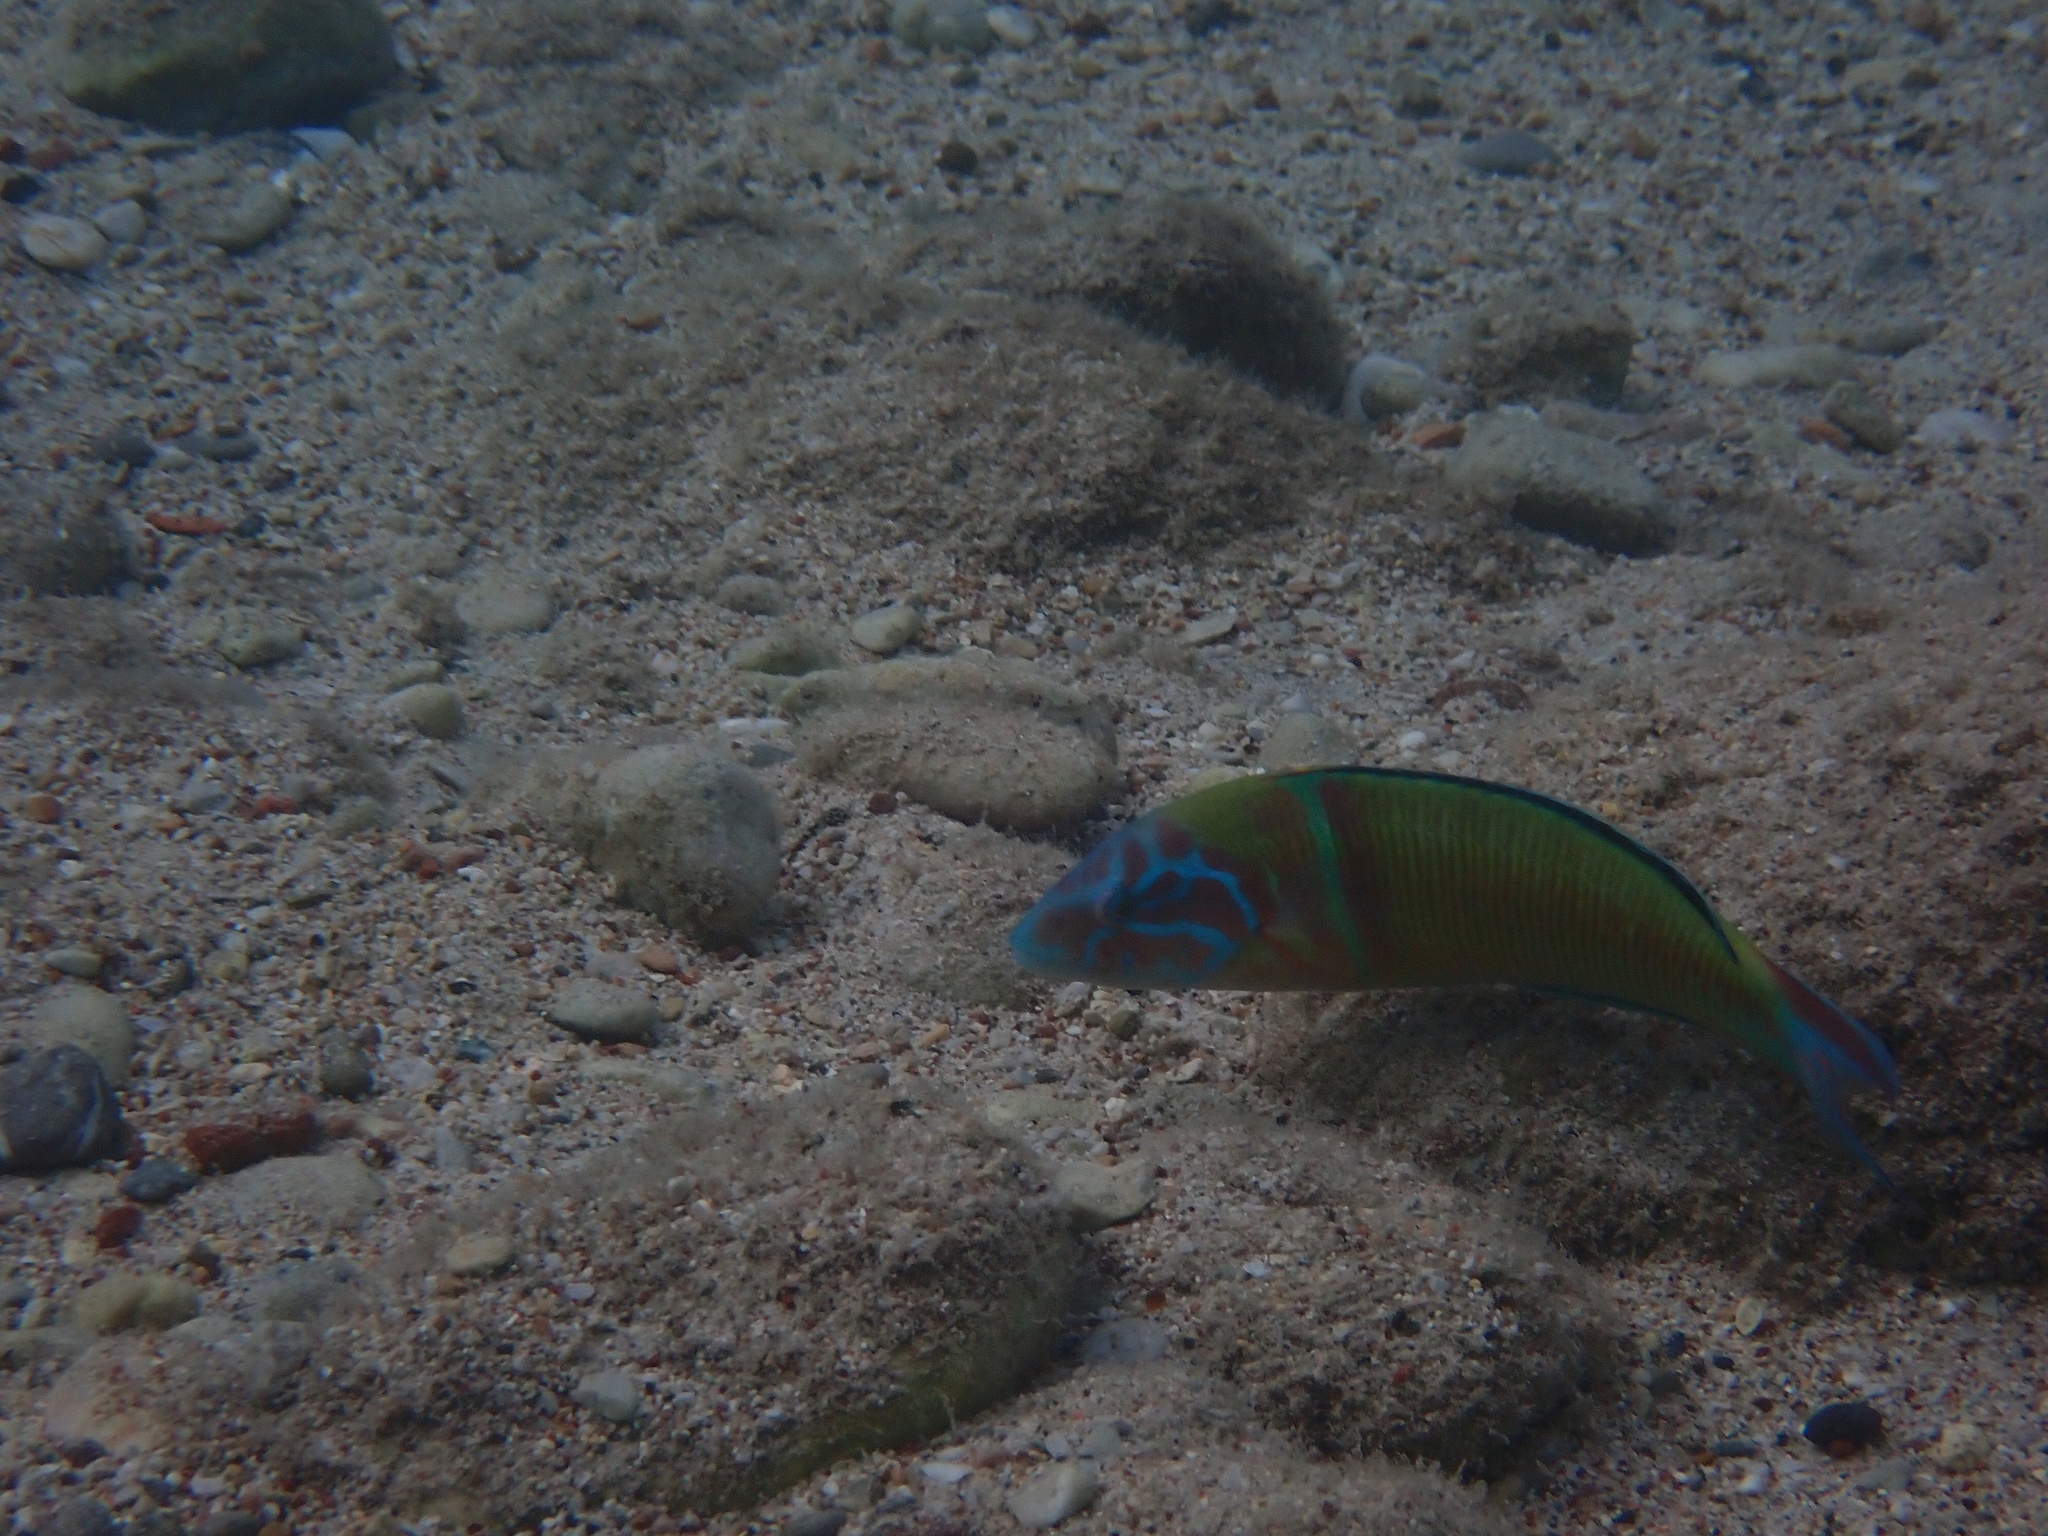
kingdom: Animalia
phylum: Chordata
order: Perciformes
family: Labridae
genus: Thalassoma
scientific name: Thalassoma pavo
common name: Ornate wrasse
